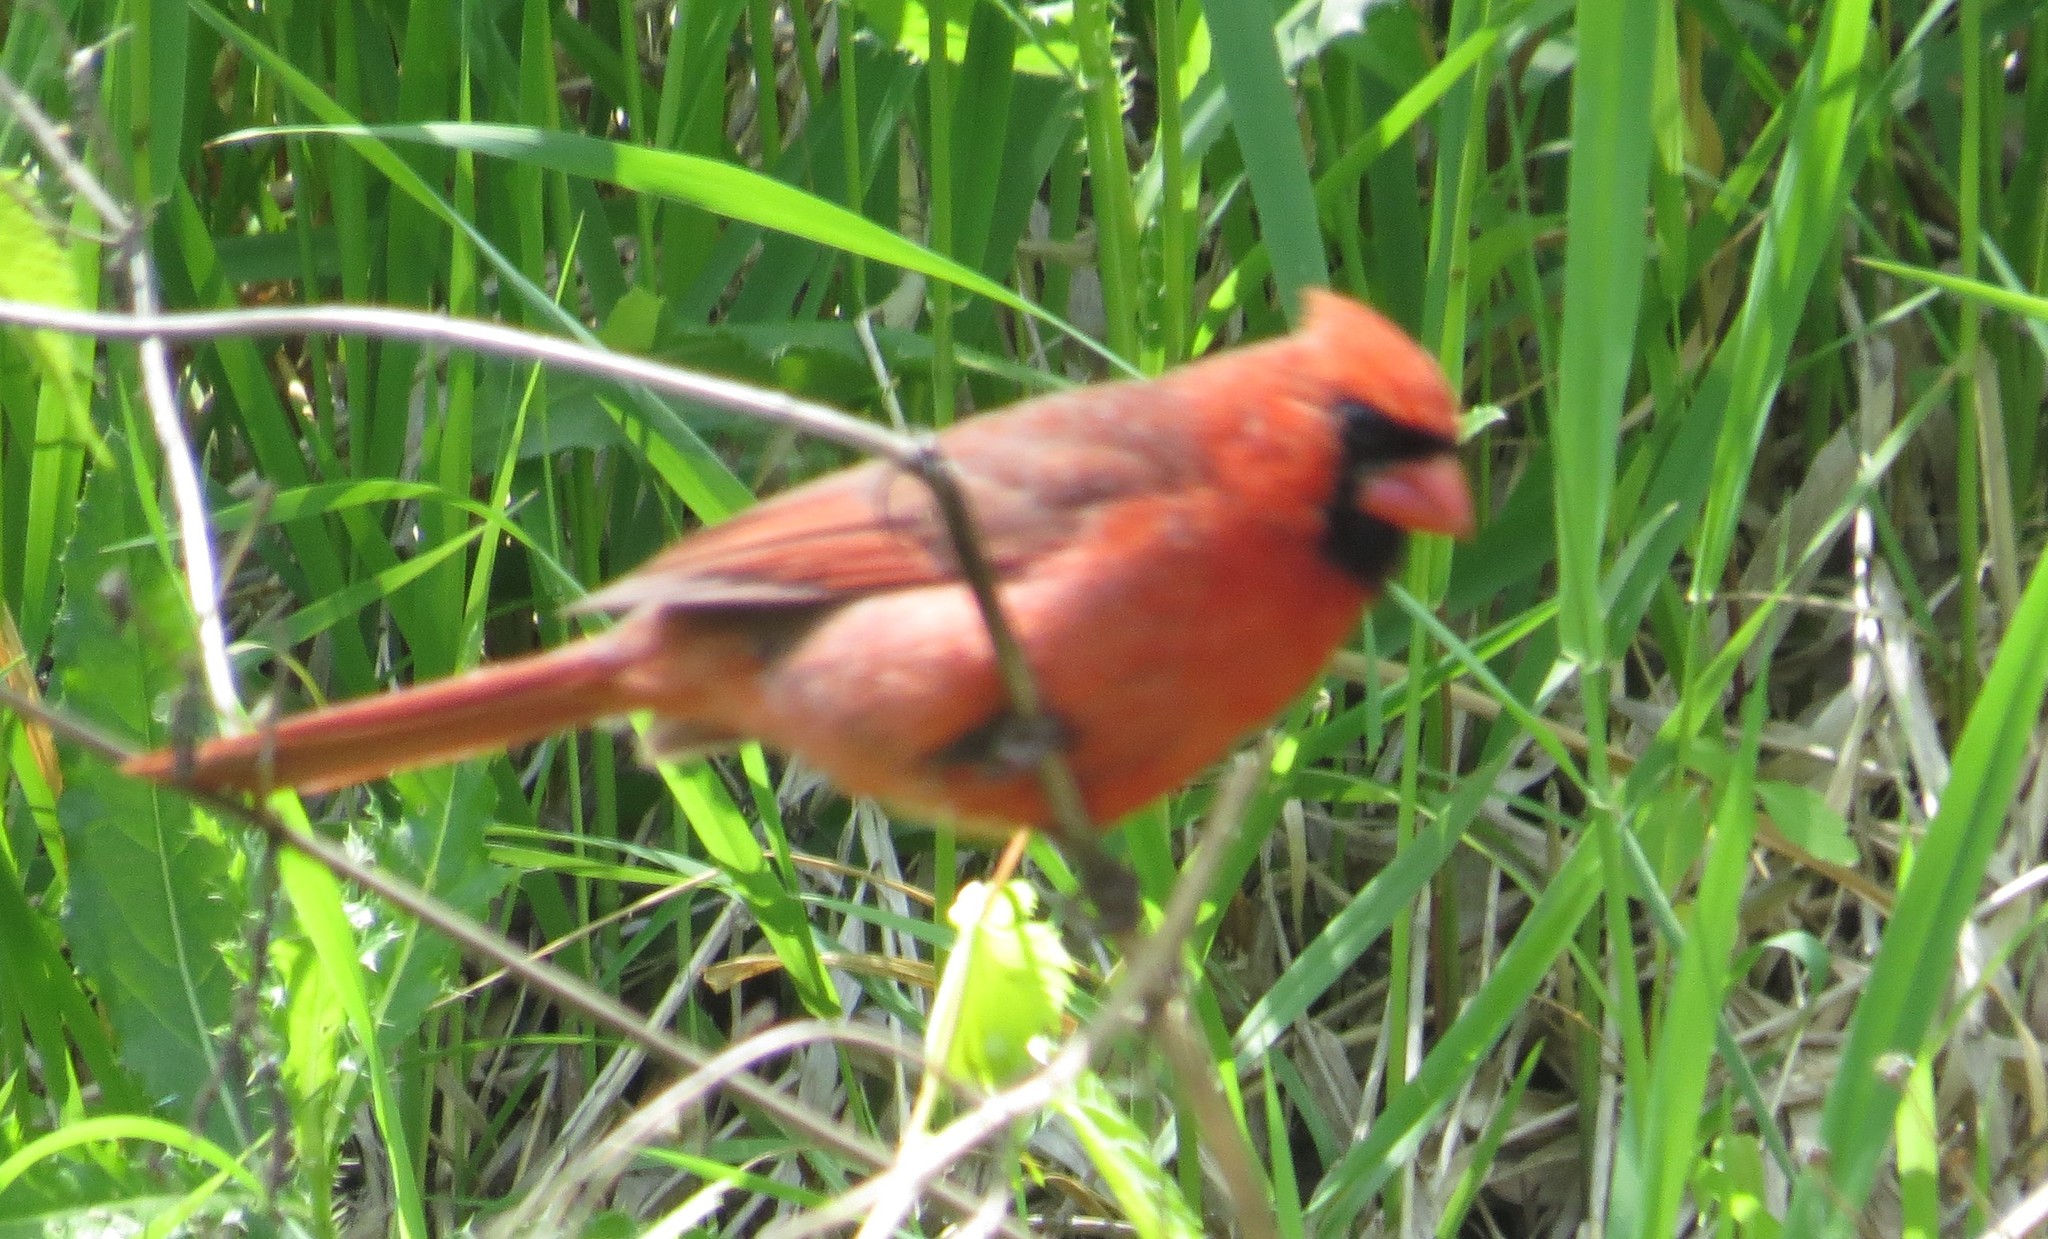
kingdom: Animalia
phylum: Chordata
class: Aves
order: Passeriformes
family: Cardinalidae
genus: Cardinalis
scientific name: Cardinalis cardinalis
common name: Northern cardinal
